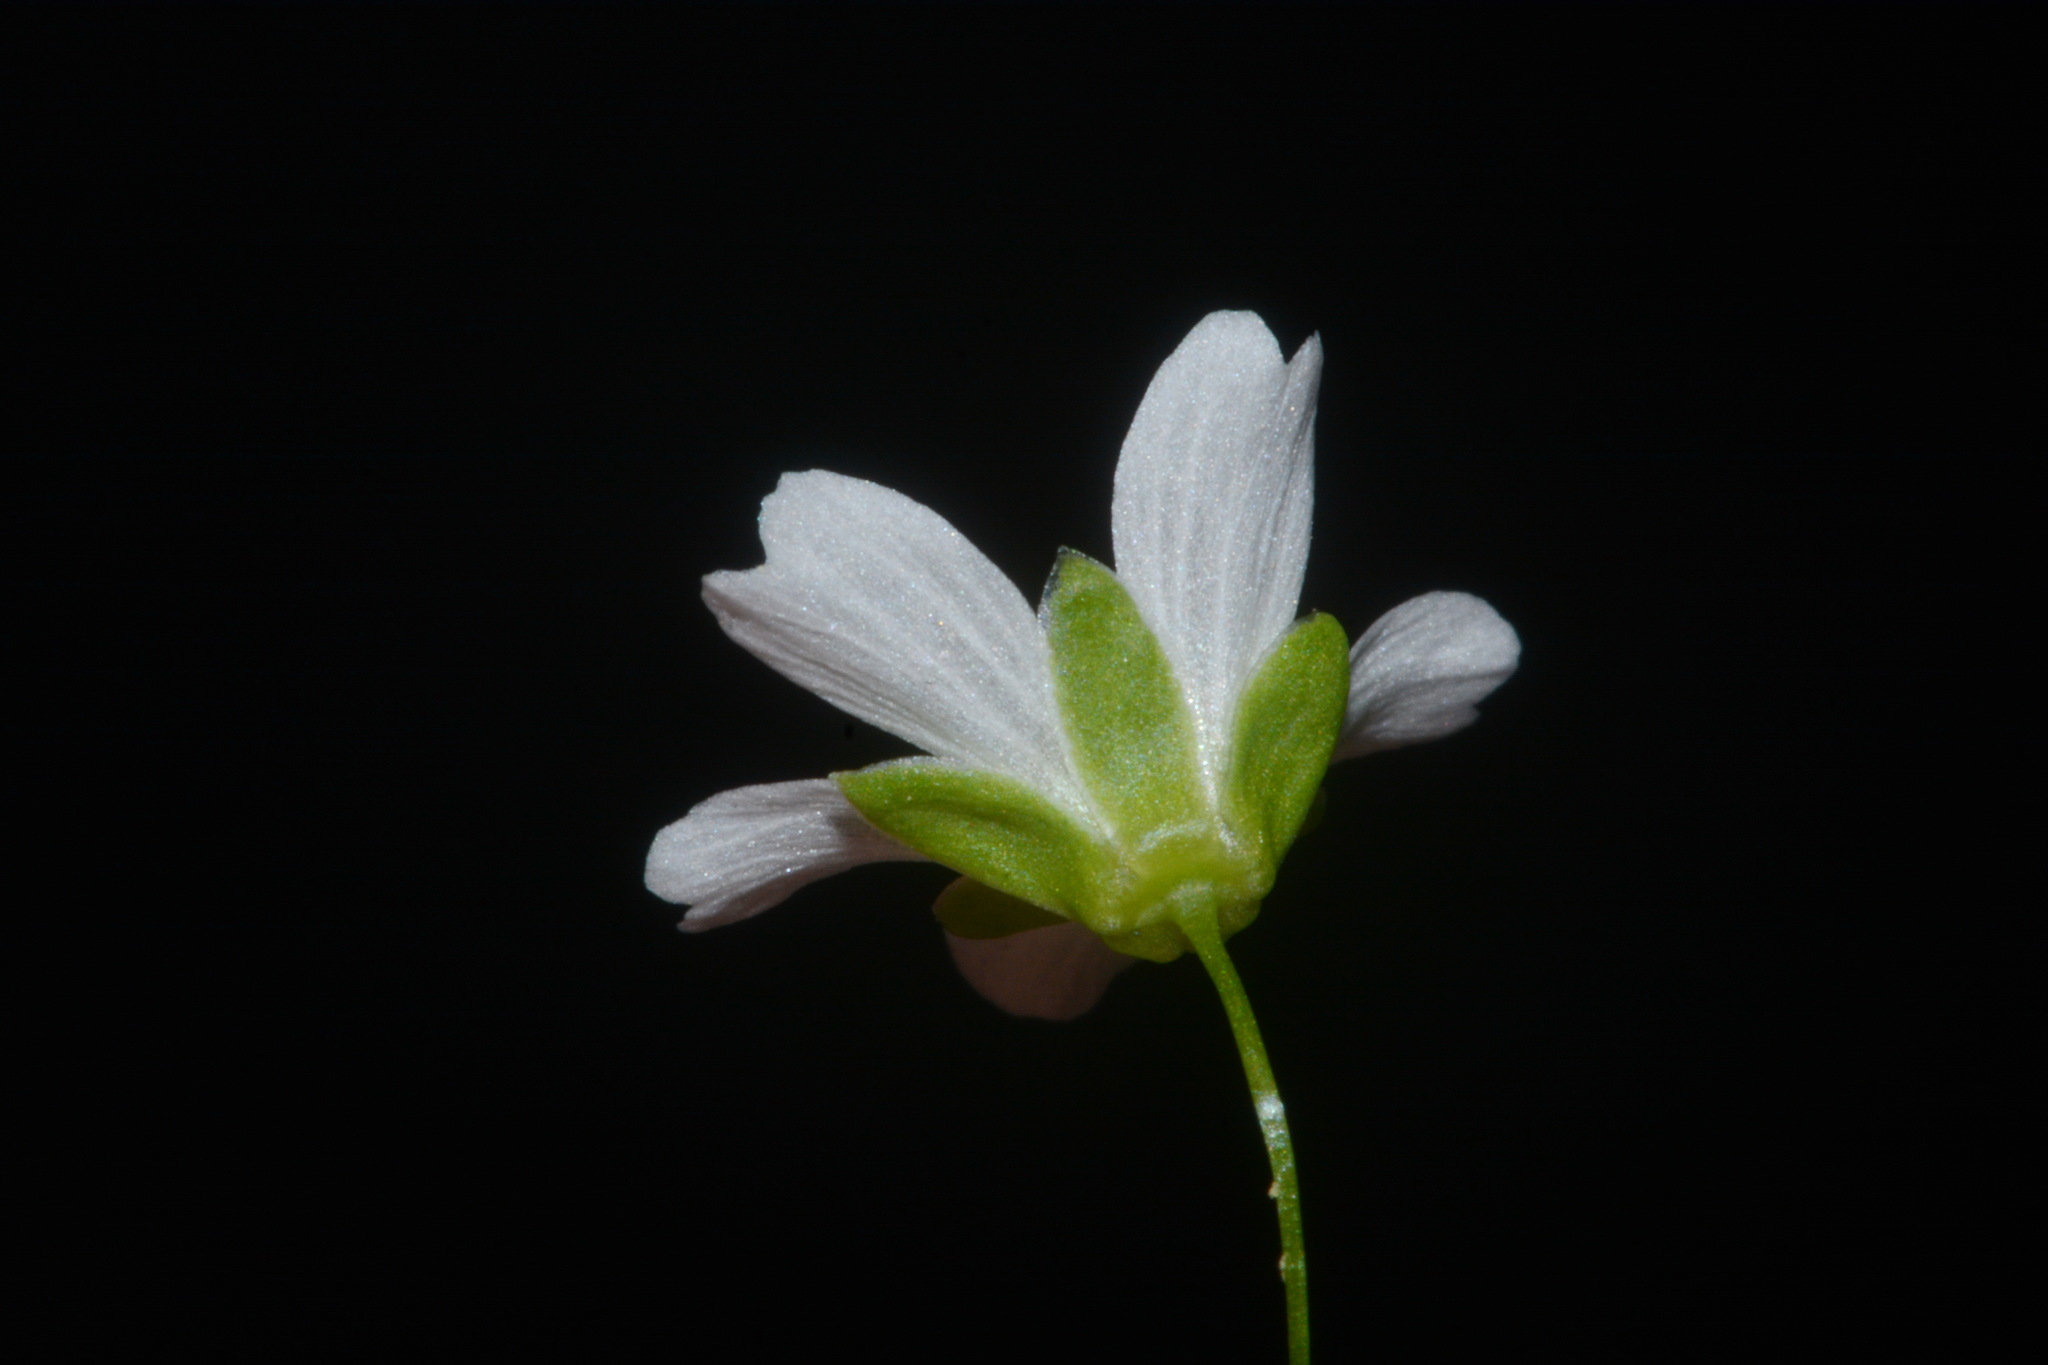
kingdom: Plantae
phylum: Tracheophyta
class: Magnoliopsida
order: Caryophyllales
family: Caryophyllaceae
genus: Geocarpon
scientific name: Geocarpon cumberlandense
